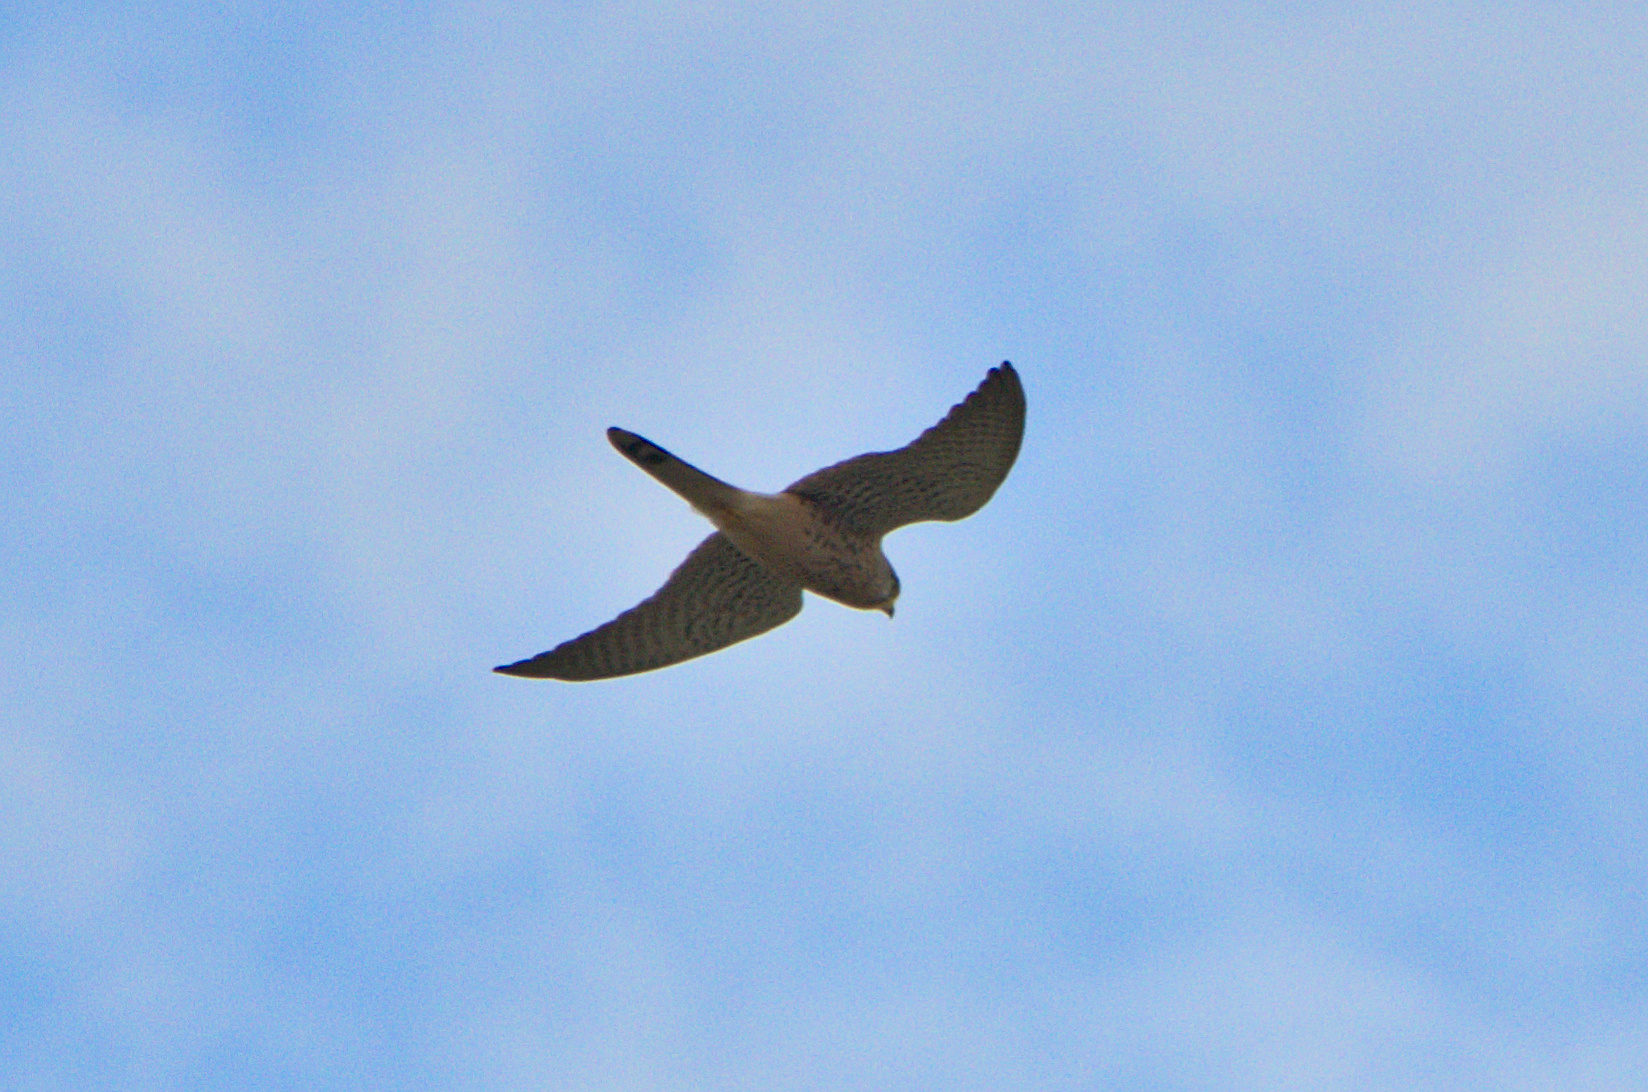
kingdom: Animalia
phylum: Chordata
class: Aves
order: Falconiformes
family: Falconidae
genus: Falco
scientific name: Falco tinnunculus
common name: Common kestrel
